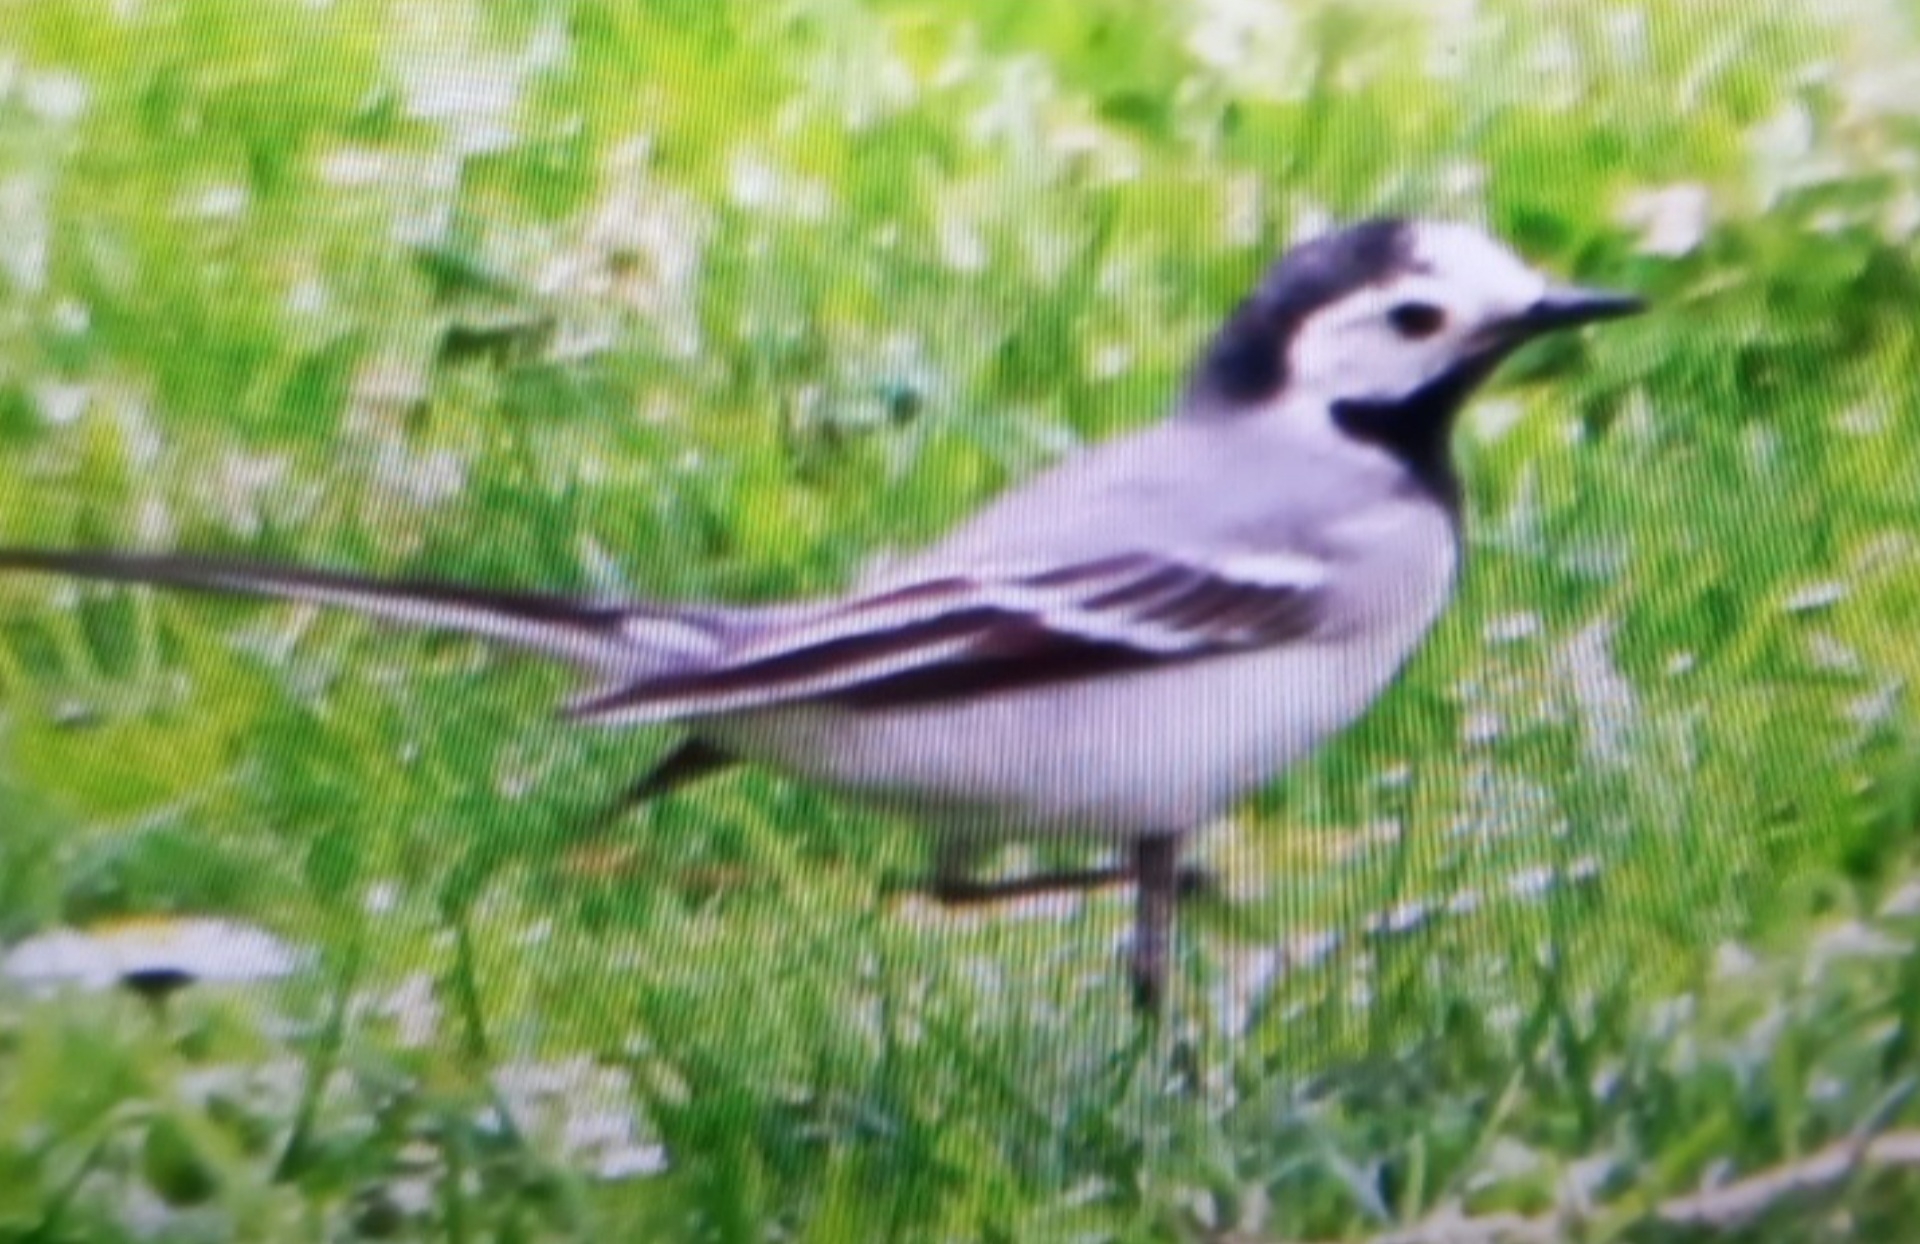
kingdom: Animalia
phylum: Chordata
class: Aves
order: Passeriformes
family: Motacillidae
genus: Motacilla
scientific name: Motacilla alba
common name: White wagtail
